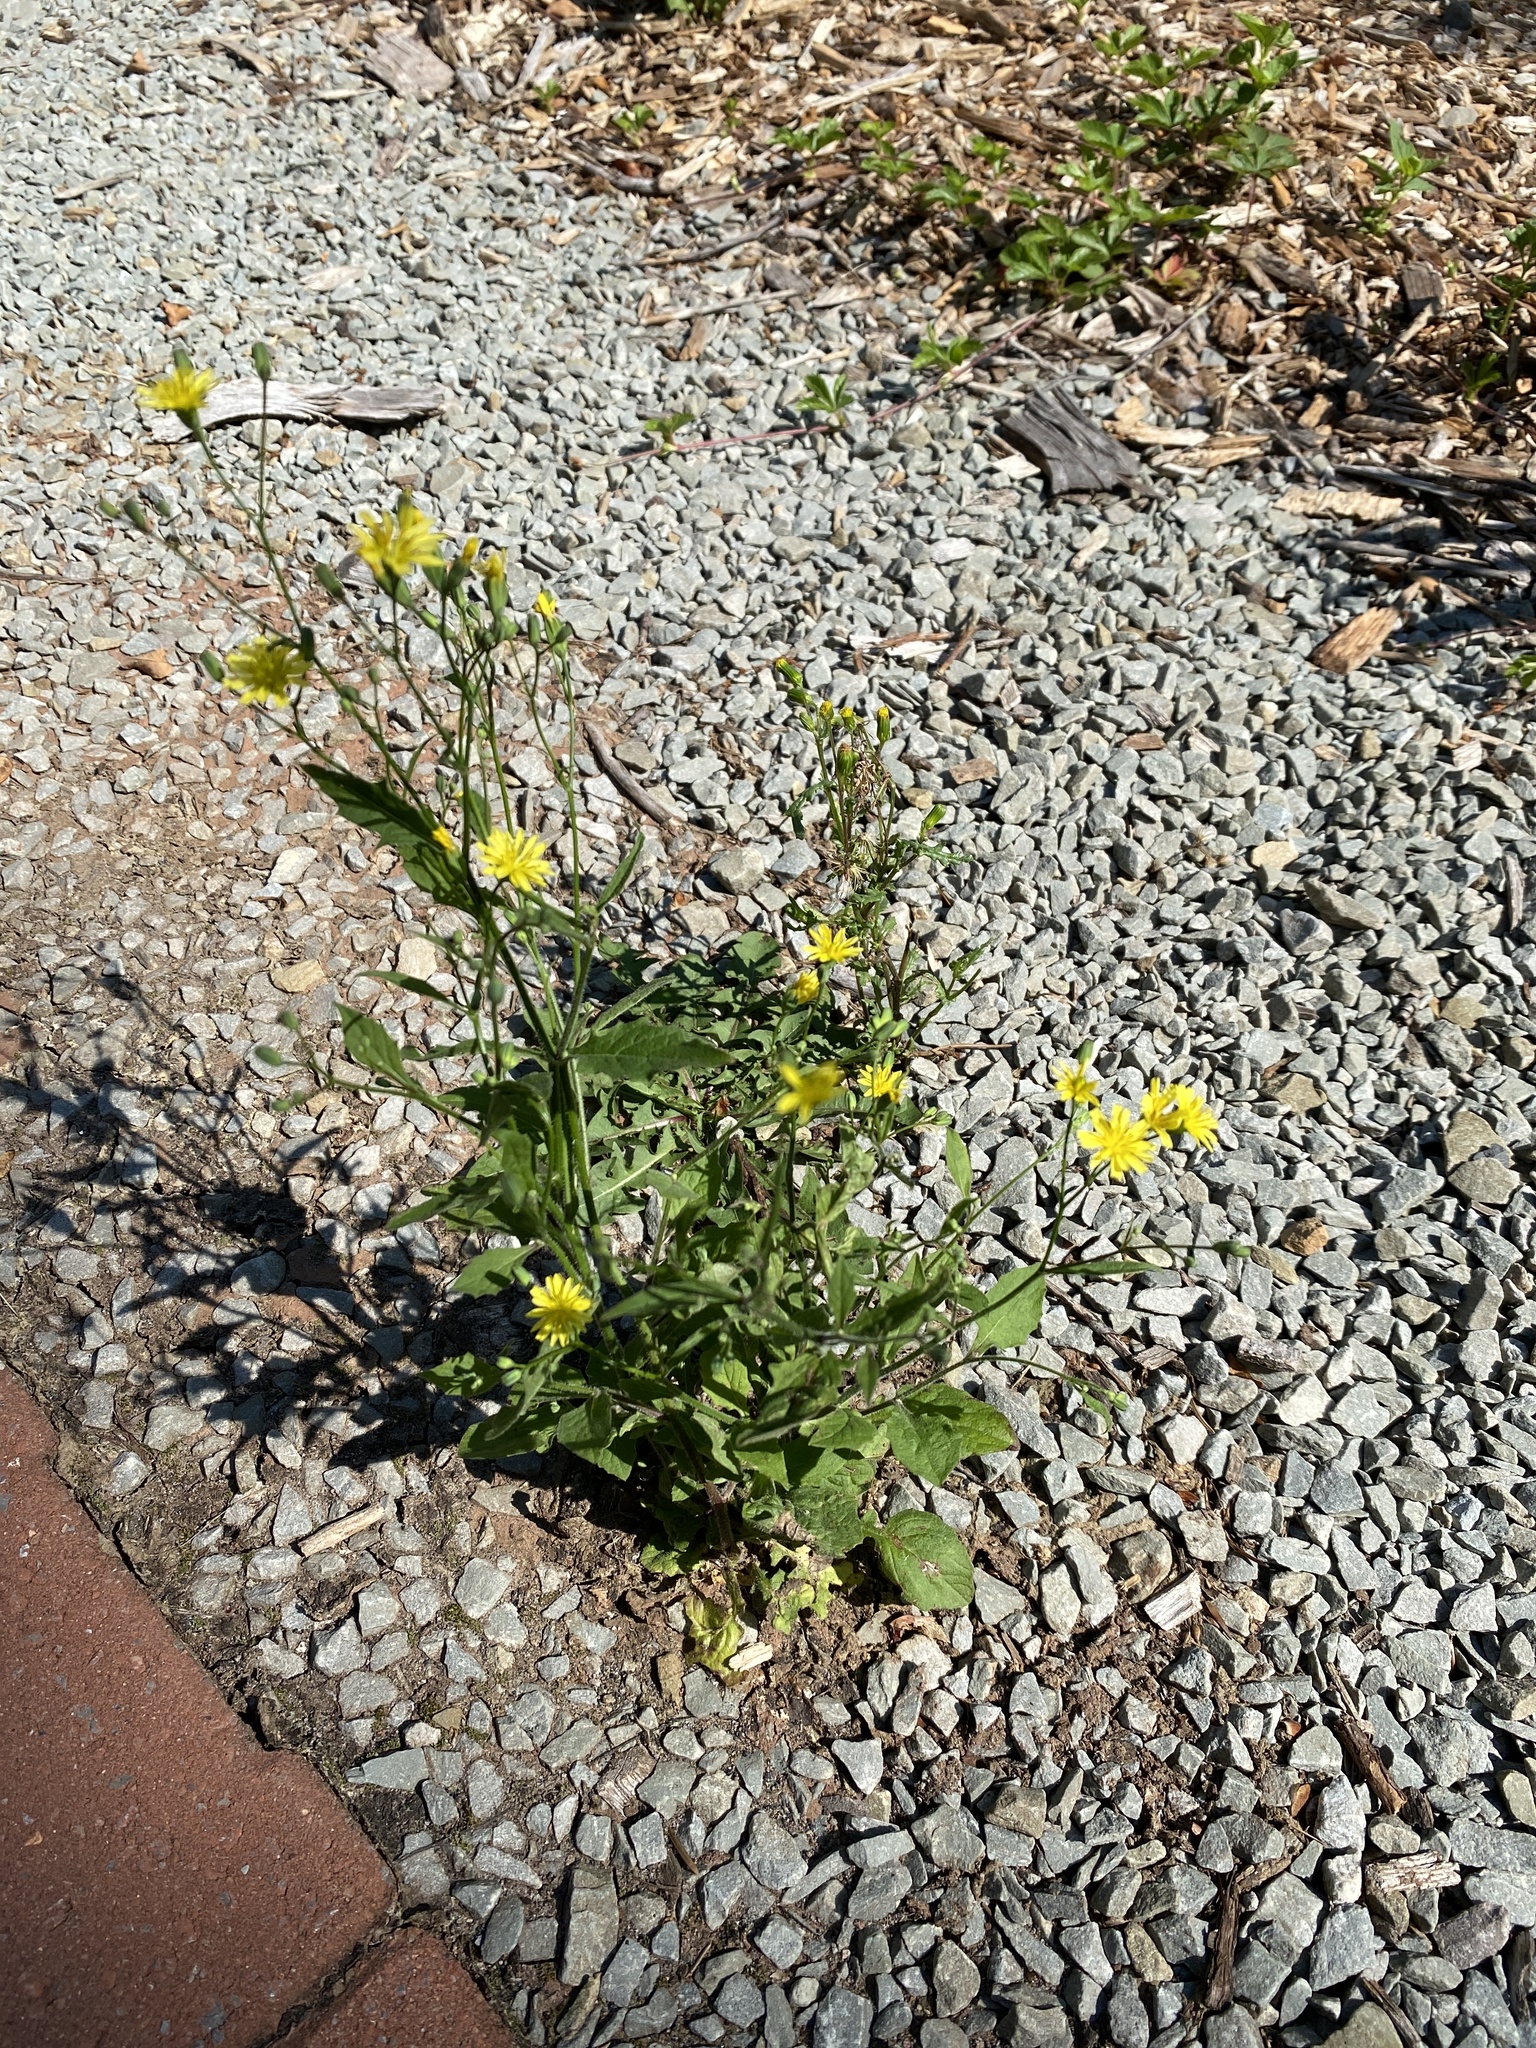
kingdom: Plantae
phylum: Tracheophyta
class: Magnoliopsida
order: Asterales
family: Asteraceae
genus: Lapsana
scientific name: Lapsana communis
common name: Nipplewort
